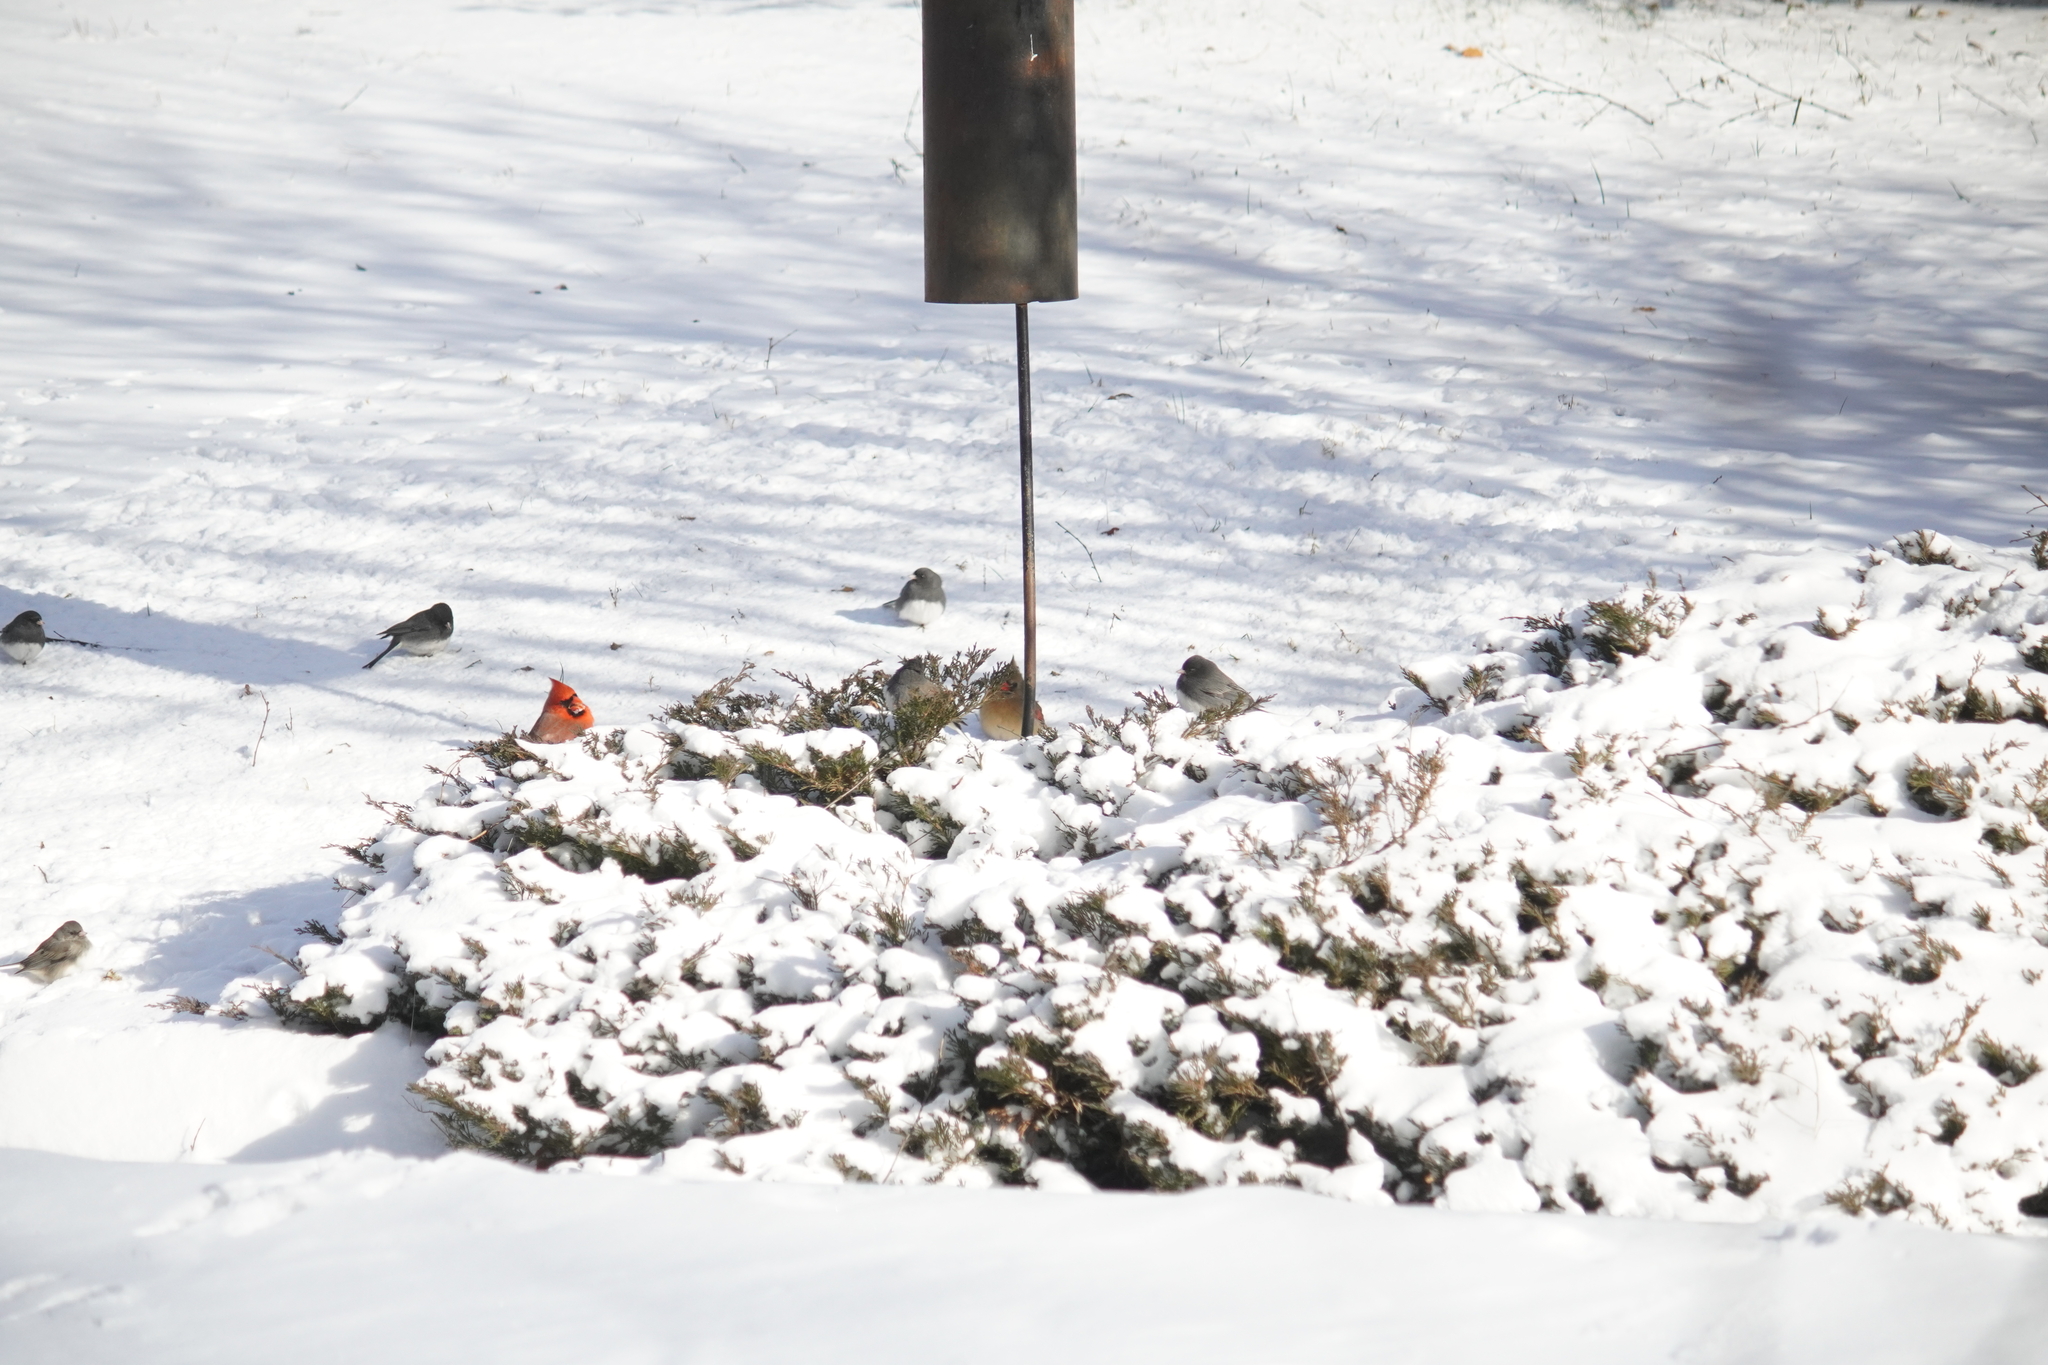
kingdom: Animalia
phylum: Chordata
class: Aves
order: Passeriformes
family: Cardinalidae
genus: Cardinalis
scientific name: Cardinalis cardinalis
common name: Northern cardinal
